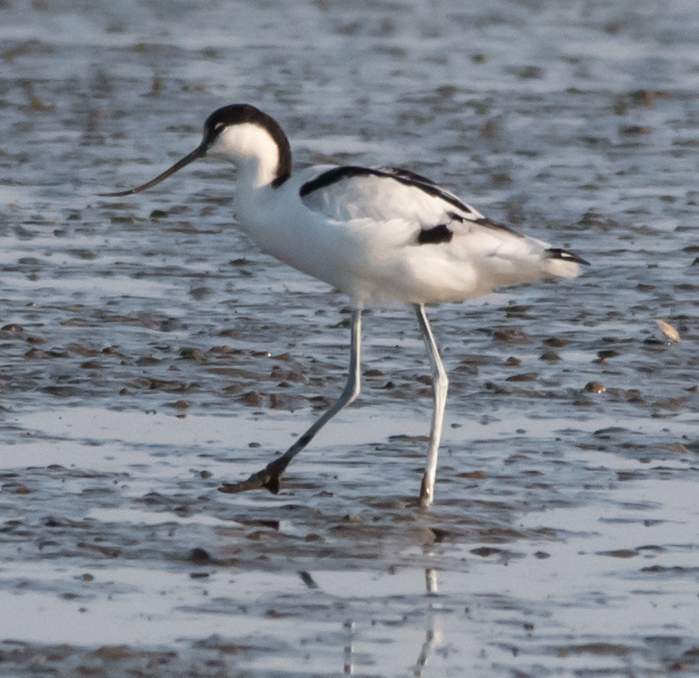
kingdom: Animalia
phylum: Chordata
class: Aves
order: Charadriiformes
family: Recurvirostridae
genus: Recurvirostra
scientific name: Recurvirostra avosetta
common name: Pied avocet
